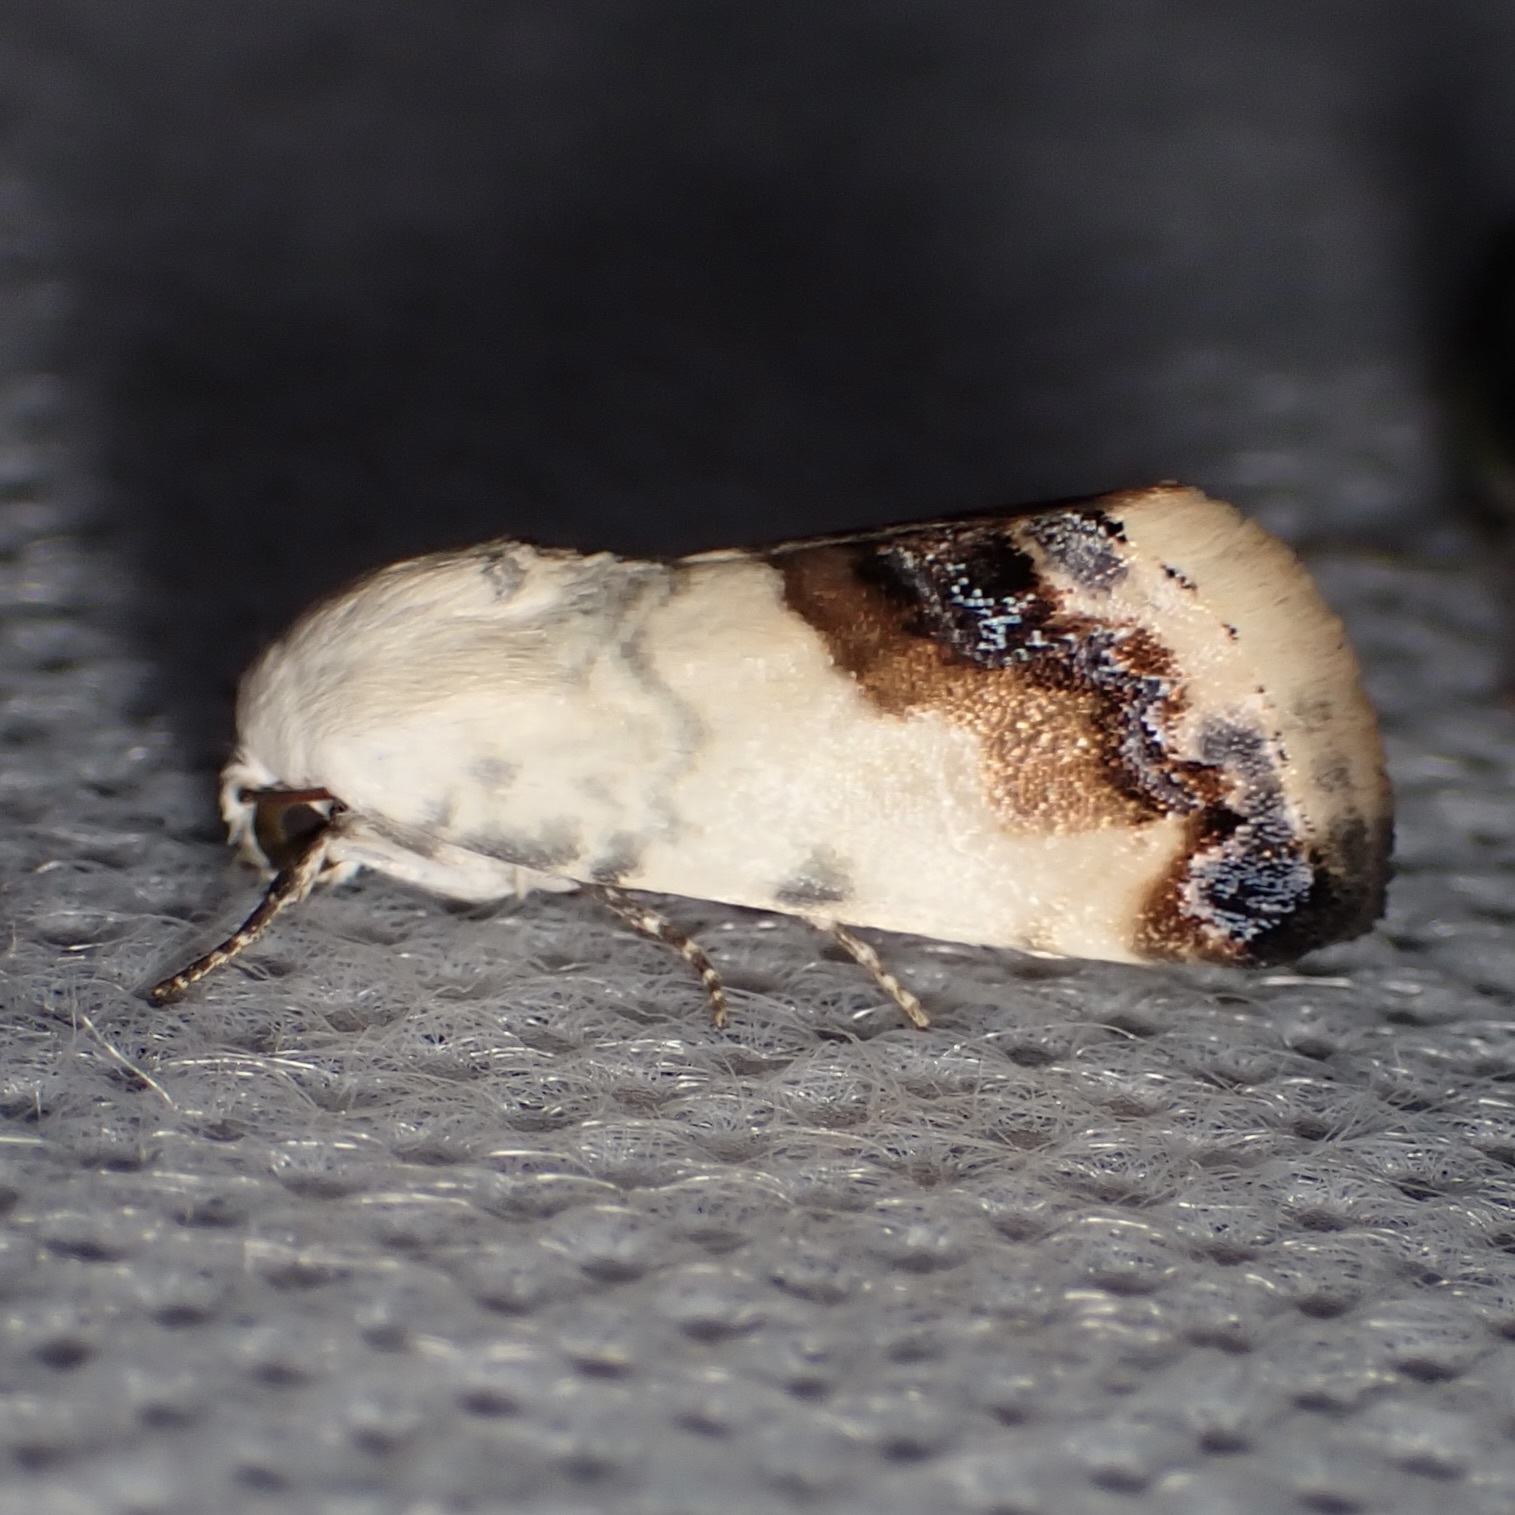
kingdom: Animalia
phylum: Arthropoda
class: Insecta
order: Lepidoptera
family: Noctuidae
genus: Acontia
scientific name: Acontia behrii
